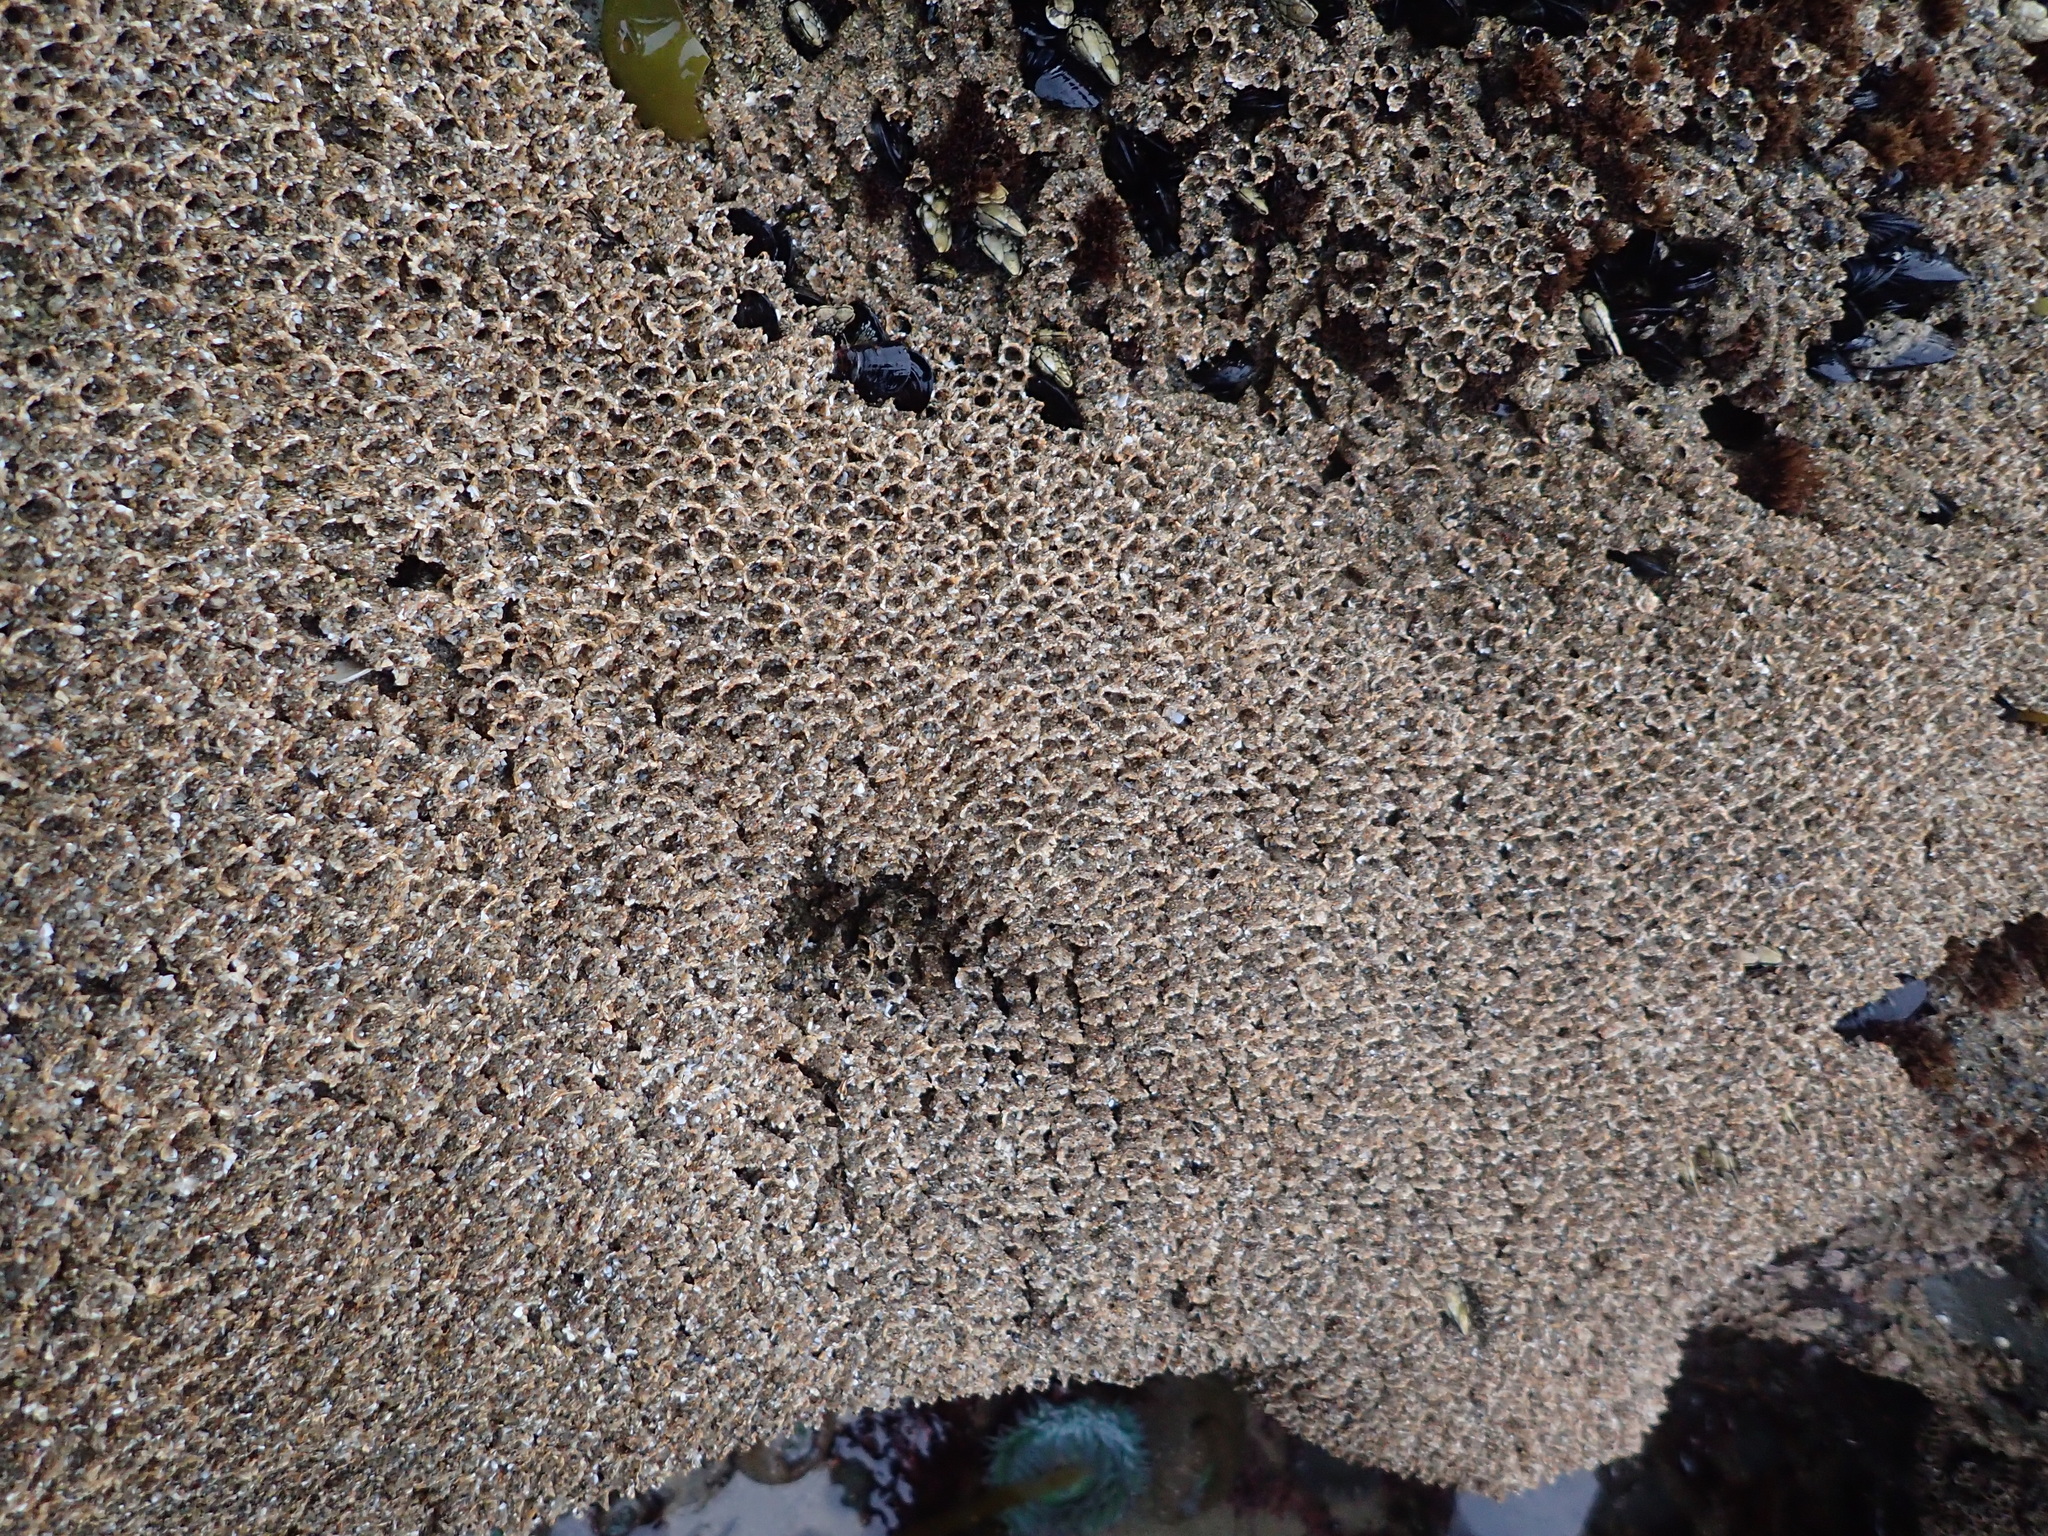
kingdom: Animalia
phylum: Annelida
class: Polychaeta
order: Sabellida
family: Sabellariidae
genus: Phragmatopoma
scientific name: Phragmatopoma californica
